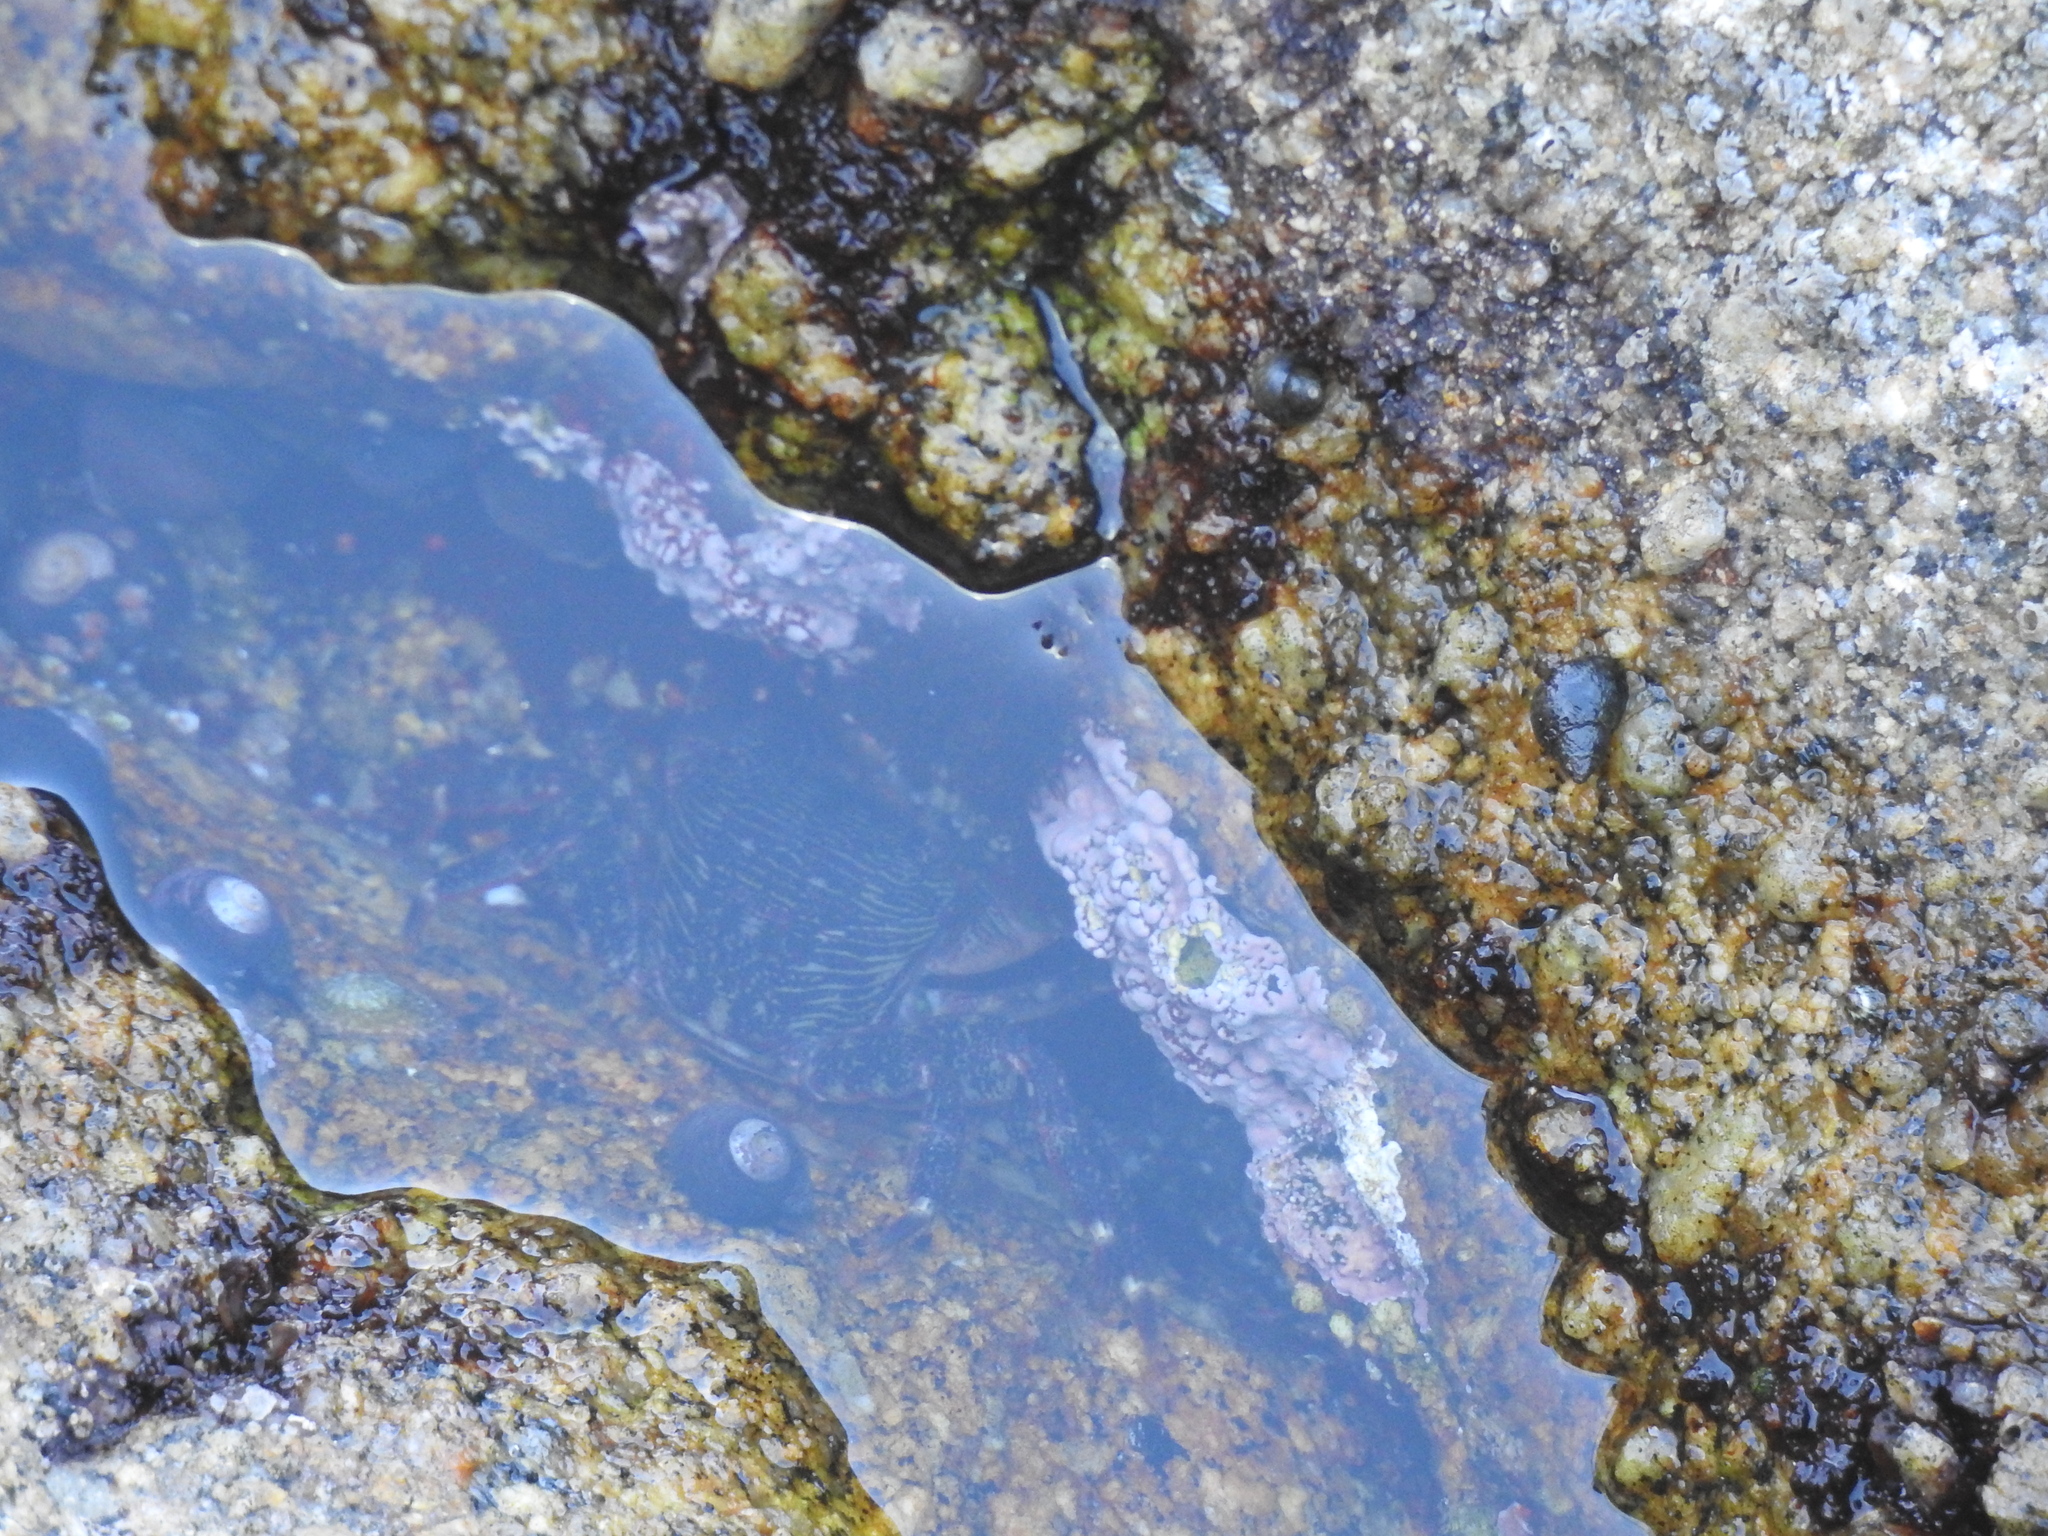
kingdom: Animalia
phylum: Arthropoda
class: Malacostraca
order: Decapoda
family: Grapsidae
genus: Pachygrapsus
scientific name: Pachygrapsus crassipes
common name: Striped shore crab
